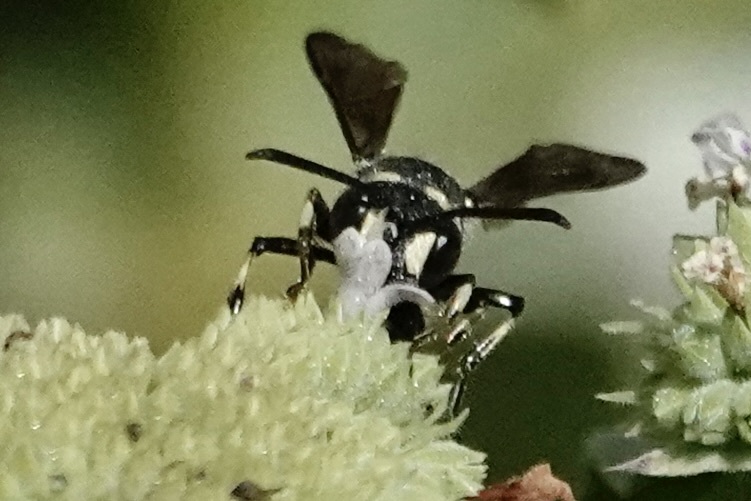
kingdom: Animalia
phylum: Arthropoda
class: Insecta
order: Hymenoptera
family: Crabronidae
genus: Cerceris
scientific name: Cerceris fumipennis
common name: Smokey-winged beetle bandit wasp
